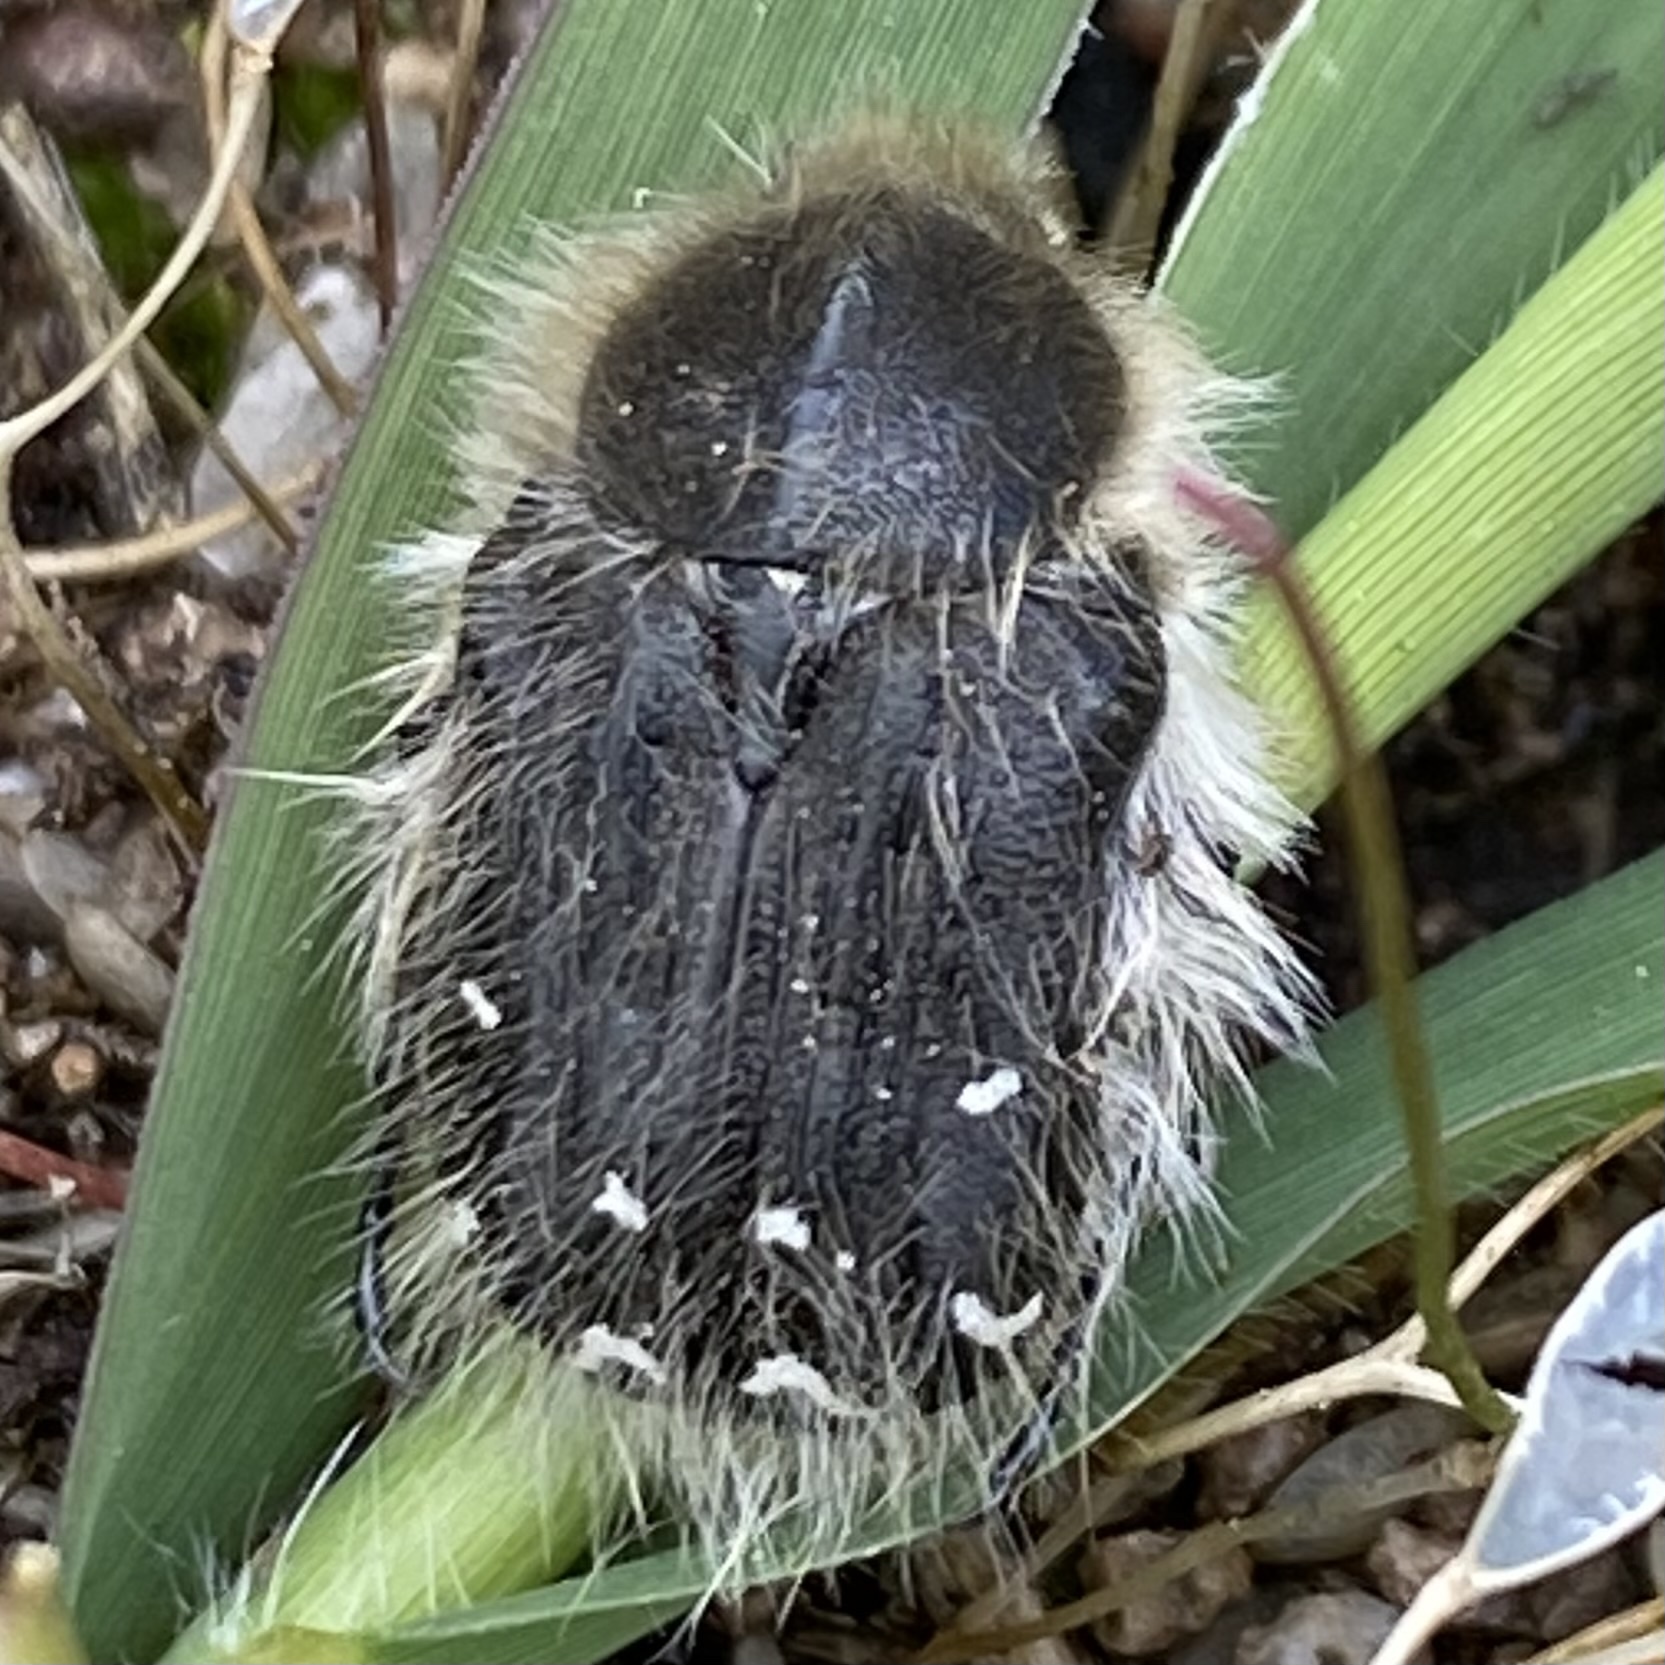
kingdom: Animalia
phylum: Arthropoda
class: Insecta
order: Coleoptera
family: Scarabaeidae
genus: Tropinota
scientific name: Tropinota hirta
